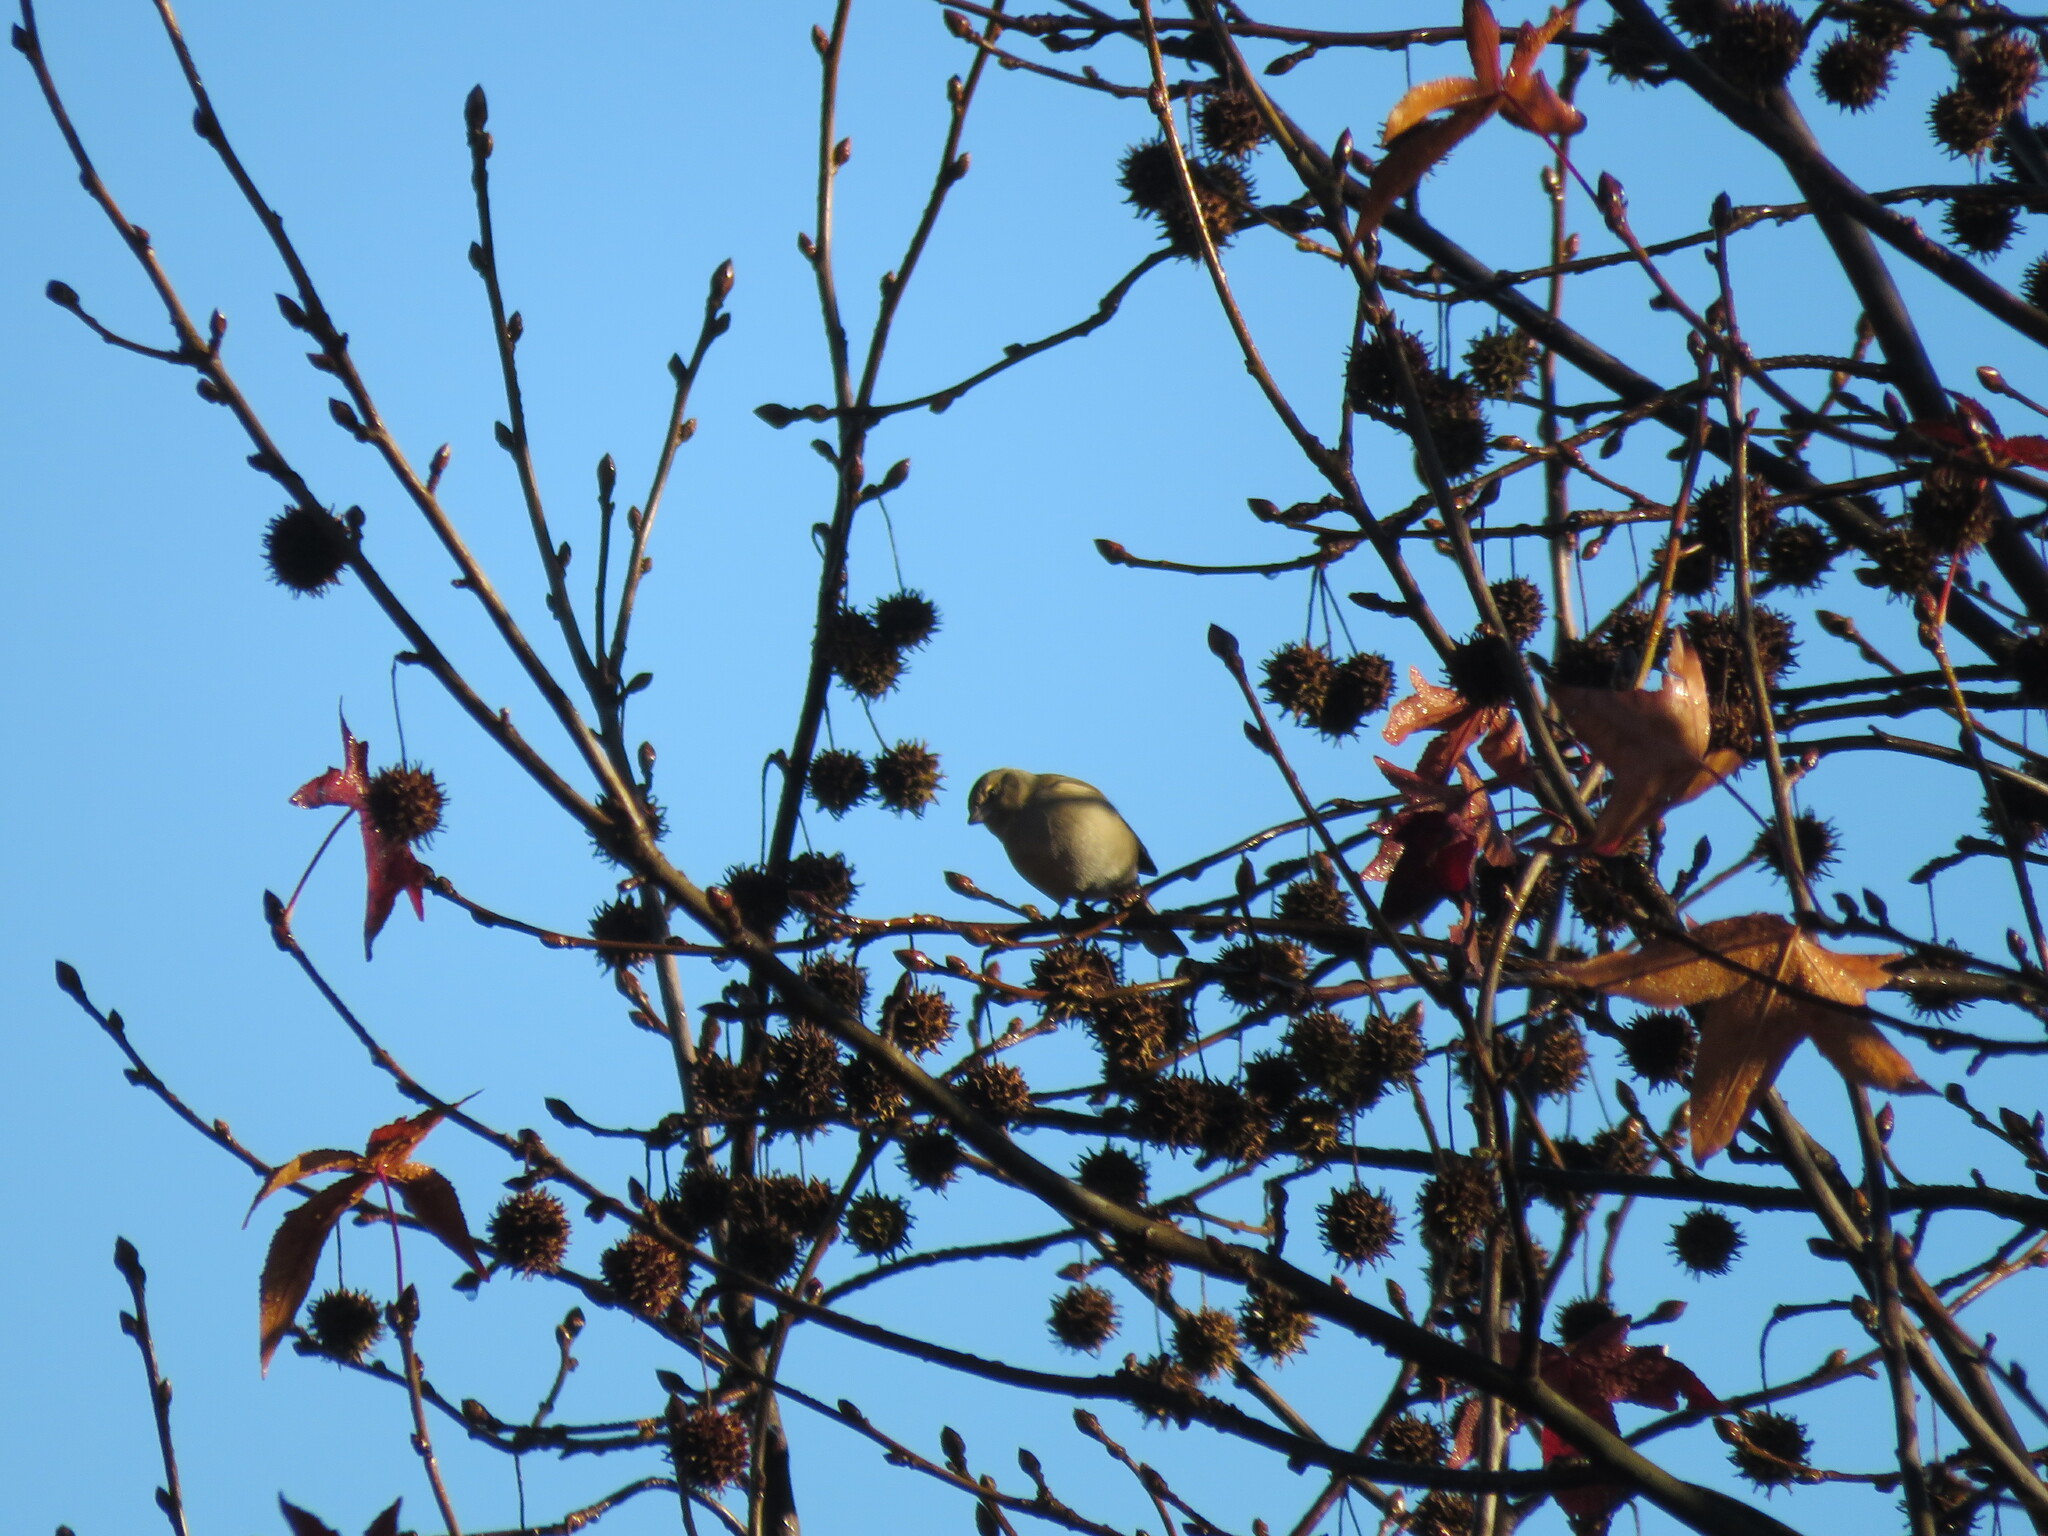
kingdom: Animalia
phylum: Chordata
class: Aves
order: Passeriformes
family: Fringillidae
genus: Fringilla
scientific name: Fringilla coelebs
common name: Common chaffinch
